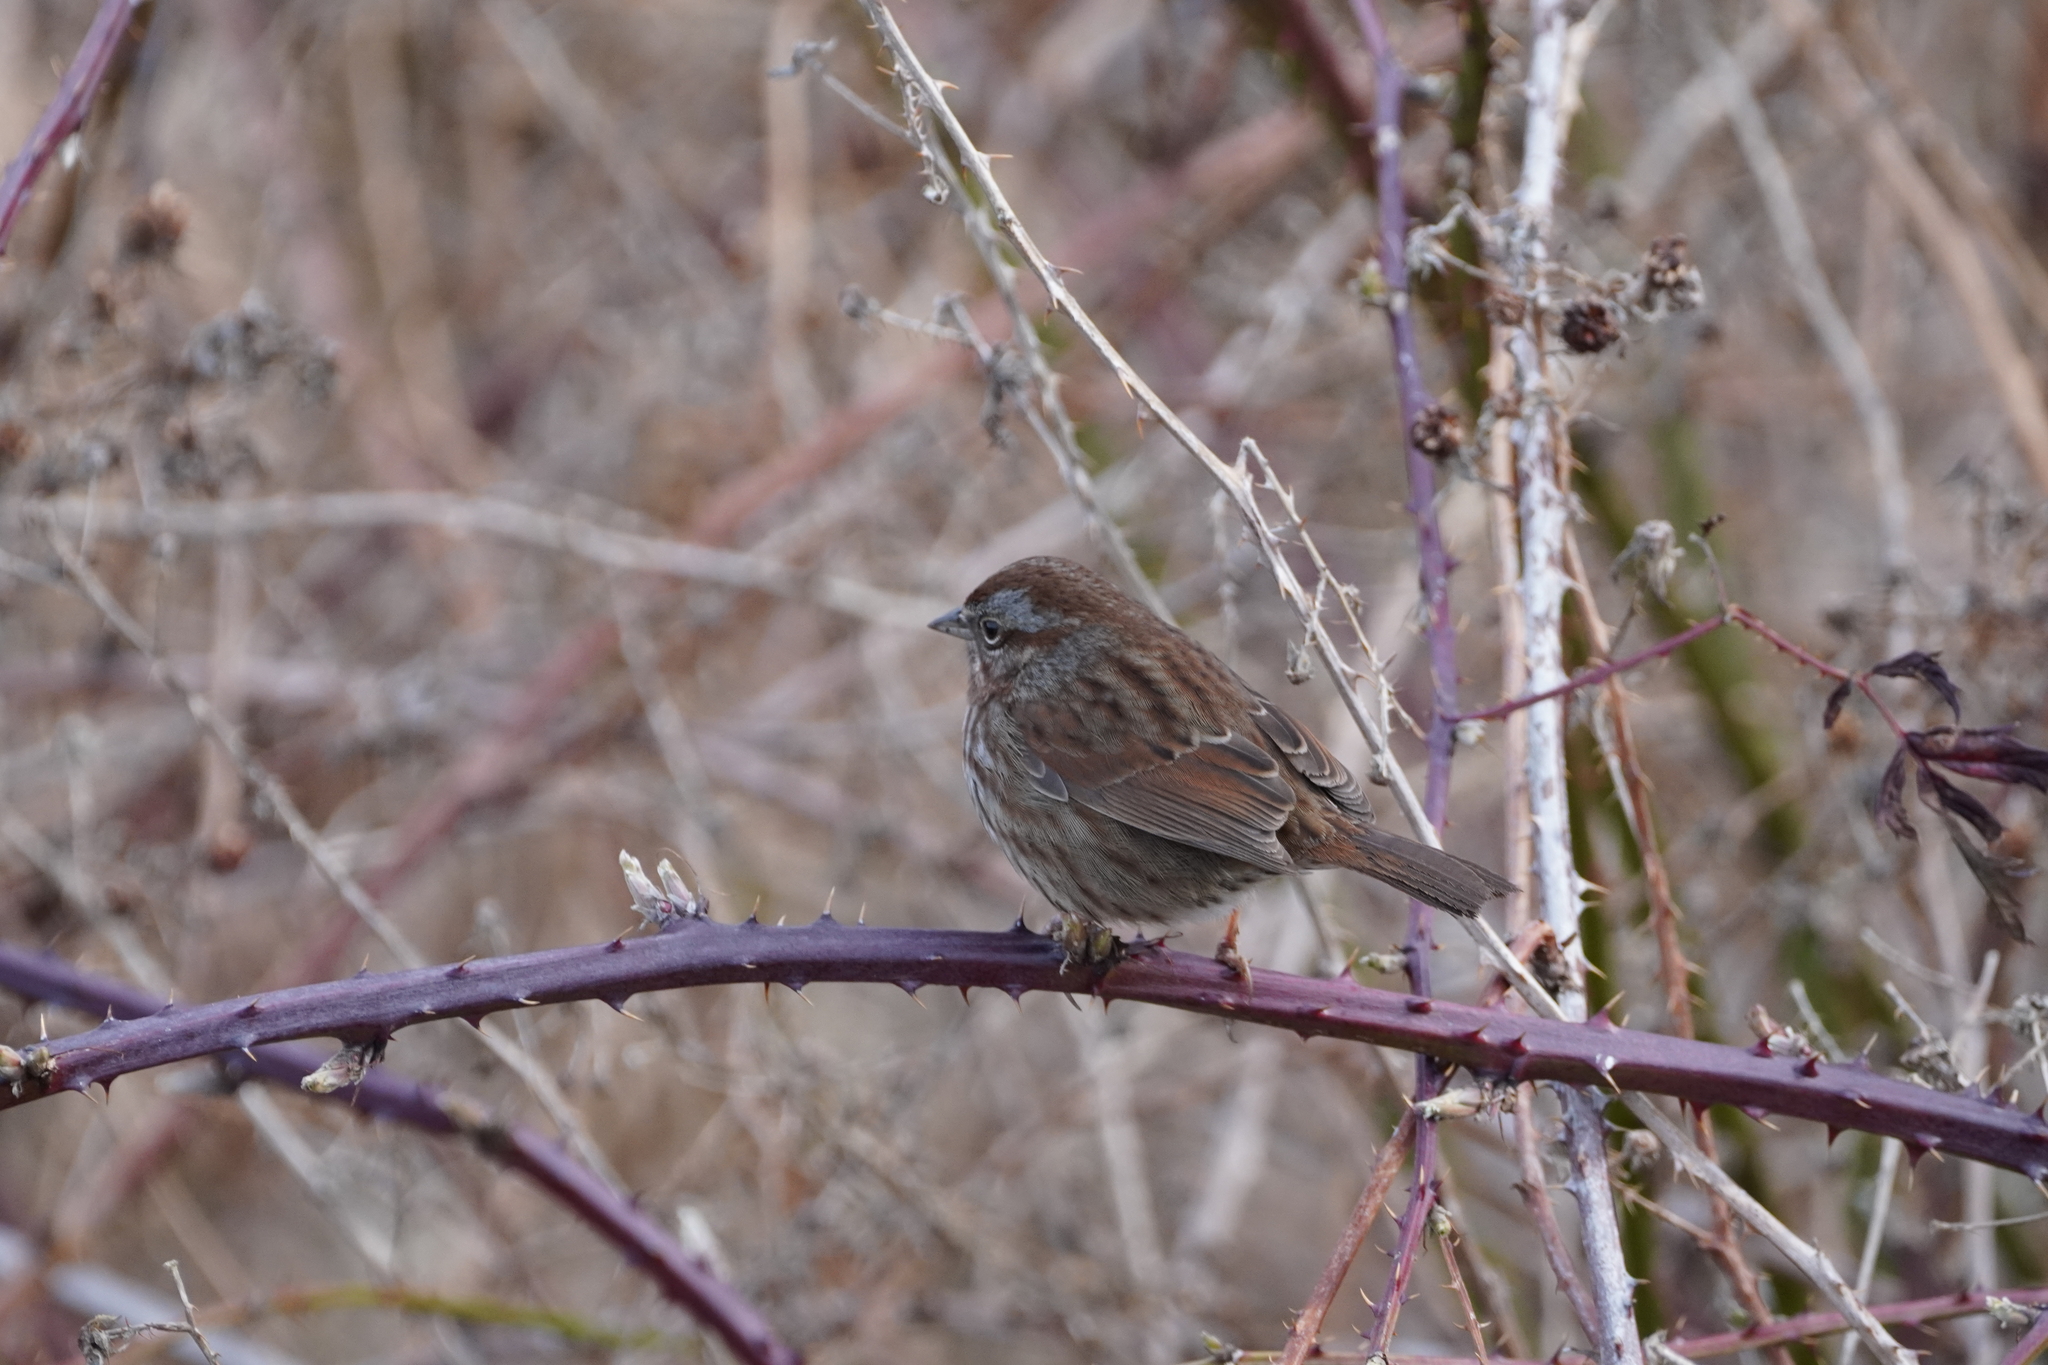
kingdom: Animalia
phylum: Chordata
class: Aves
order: Passeriformes
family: Passerellidae
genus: Melospiza
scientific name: Melospiza melodia
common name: Song sparrow
